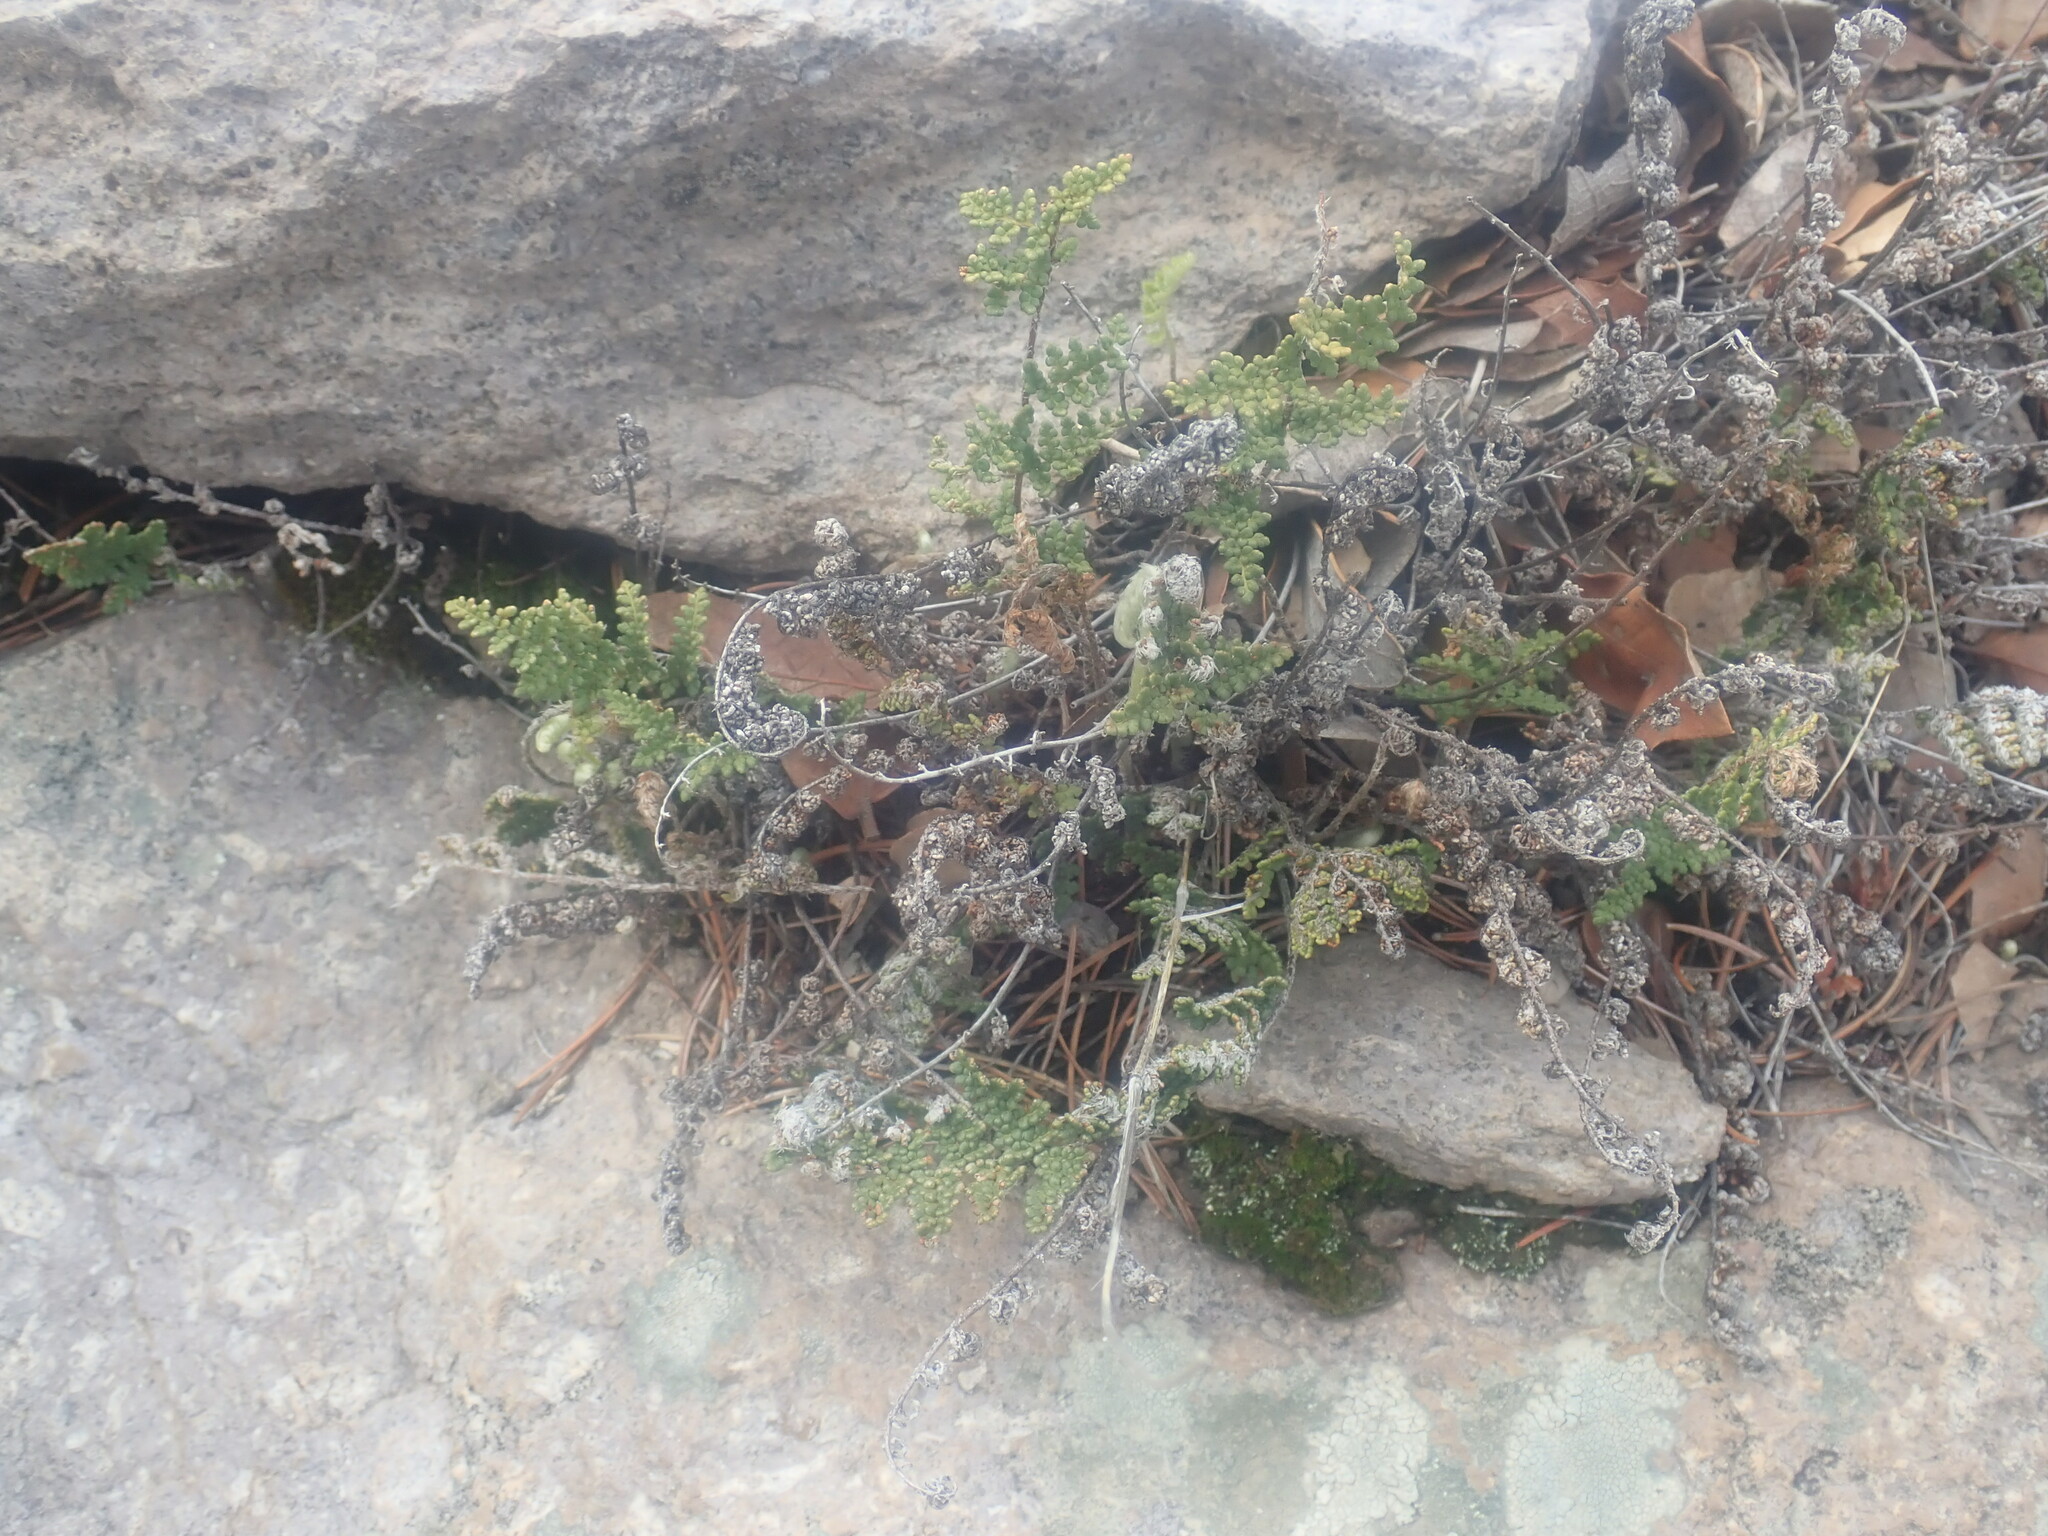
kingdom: Plantae
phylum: Tracheophyta
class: Polypodiopsida
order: Polypodiales
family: Pteridaceae
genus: Myriopteris
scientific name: Myriopteris fendleri
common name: Fendler's lip fern
